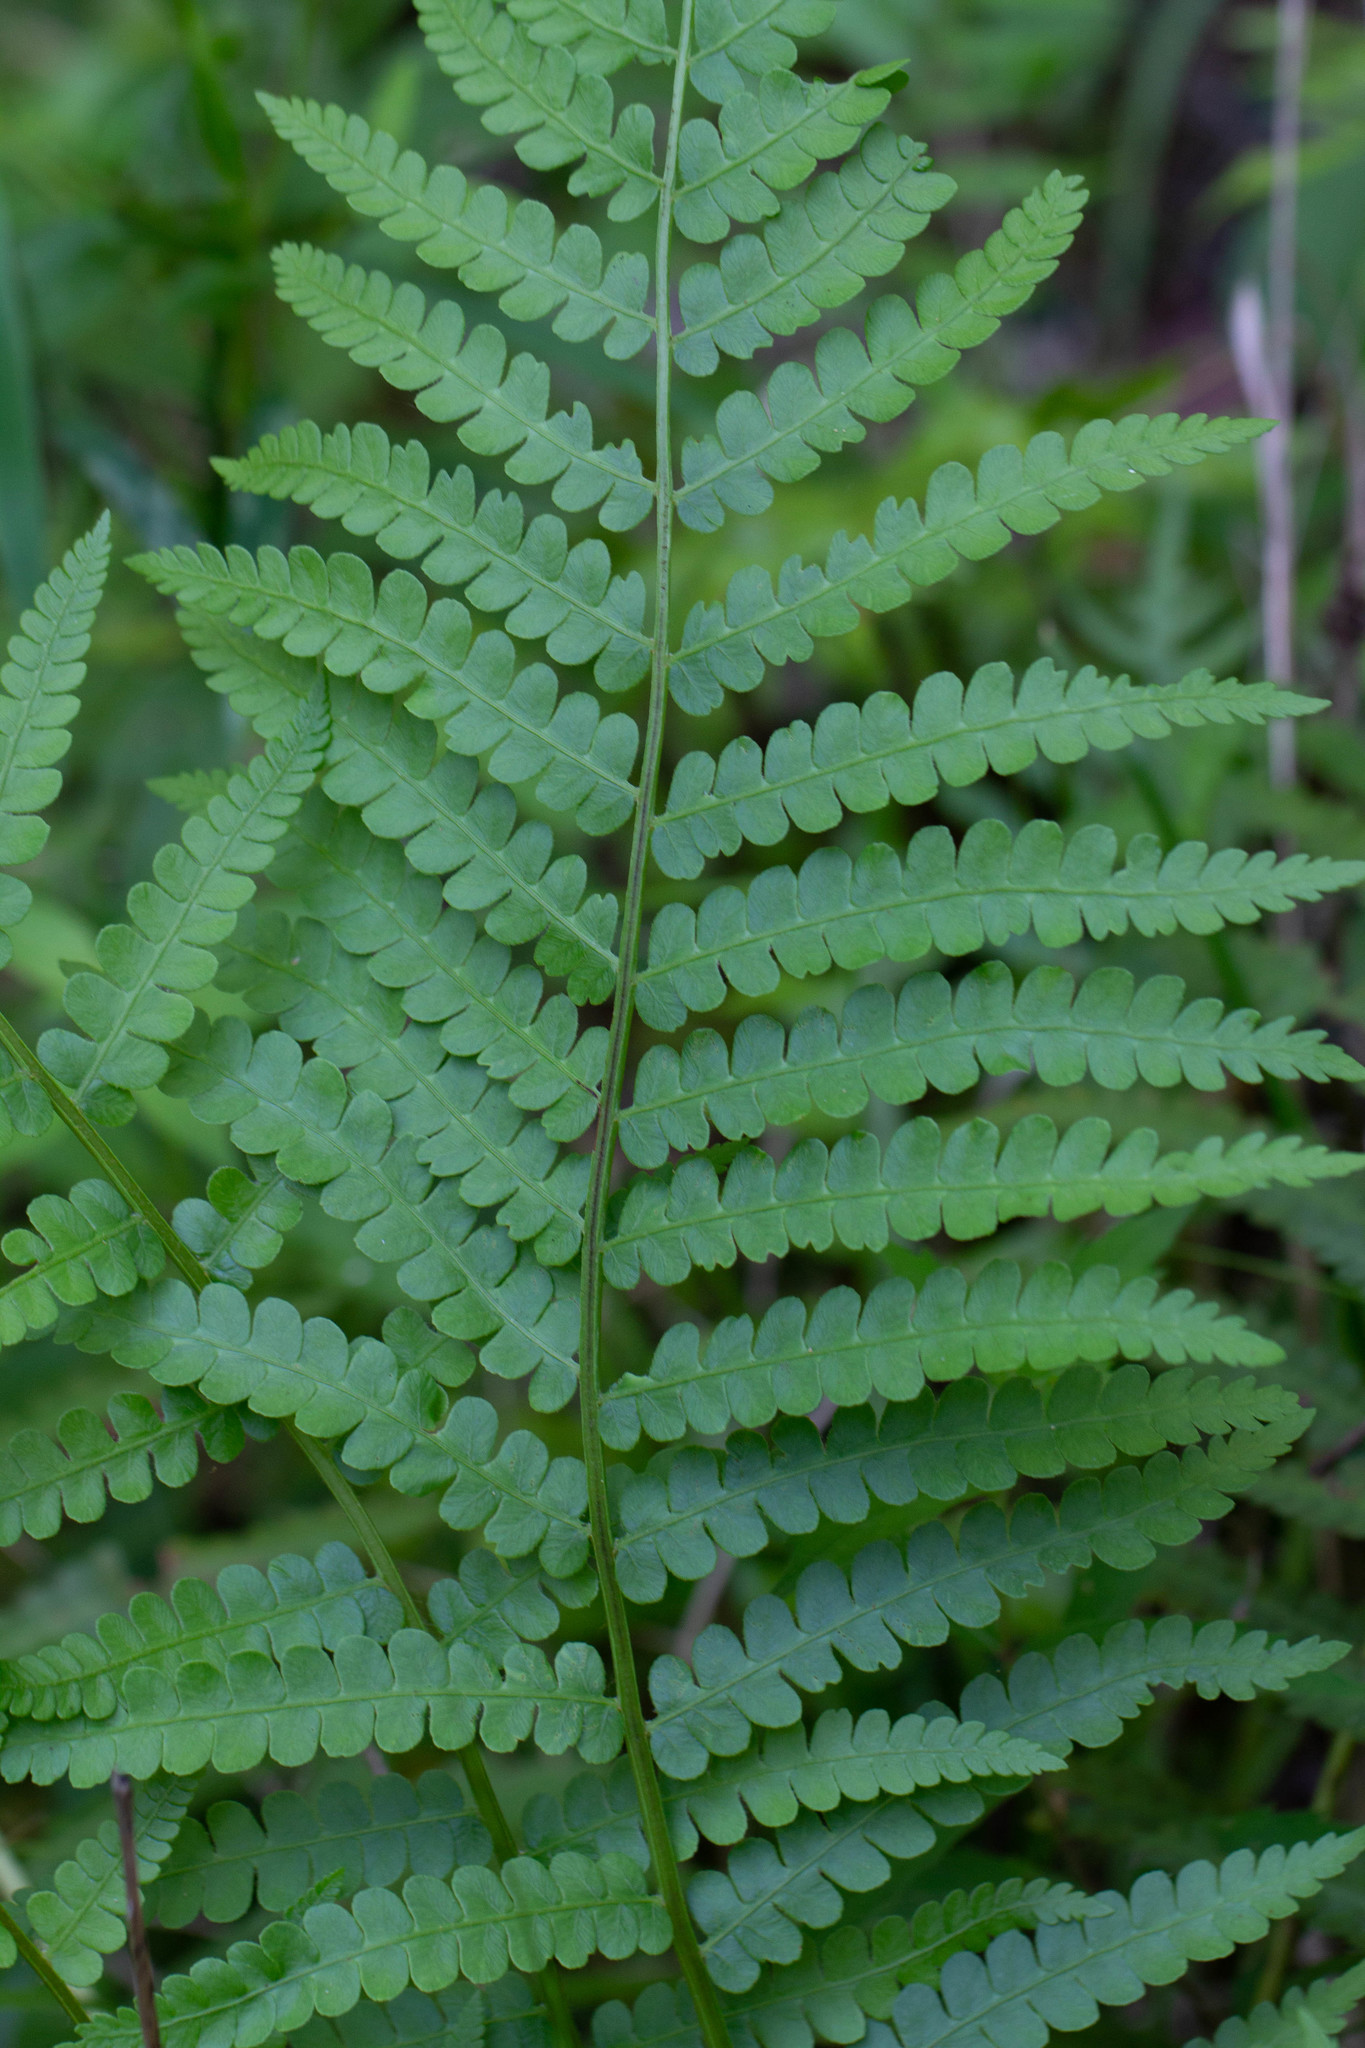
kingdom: Plantae
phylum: Tracheophyta
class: Polypodiopsida
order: Osmundales
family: Osmundaceae
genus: Osmundastrum
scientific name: Osmundastrum cinnamomeum
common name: Cinnamon fern
